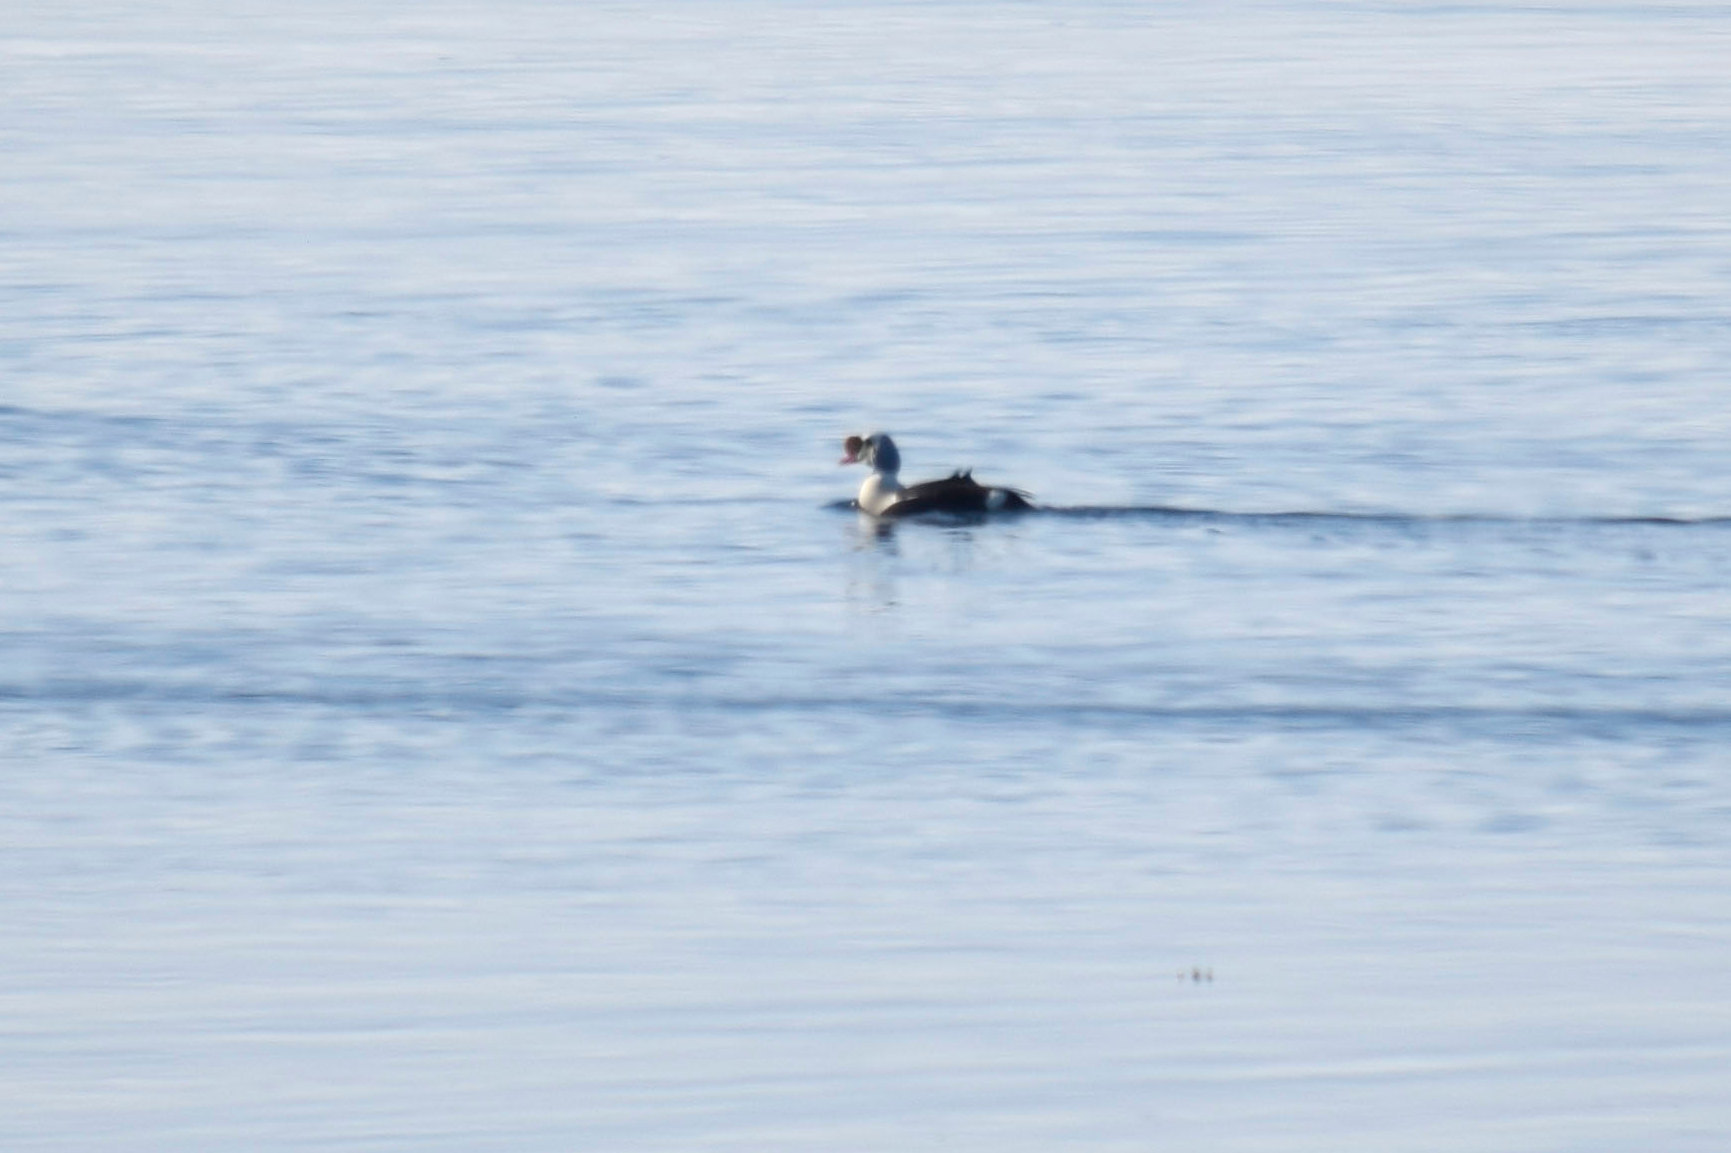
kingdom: Animalia
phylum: Chordata
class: Aves
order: Anseriformes
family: Anatidae
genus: Somateria
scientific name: Somateria spectabilis
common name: King eider
